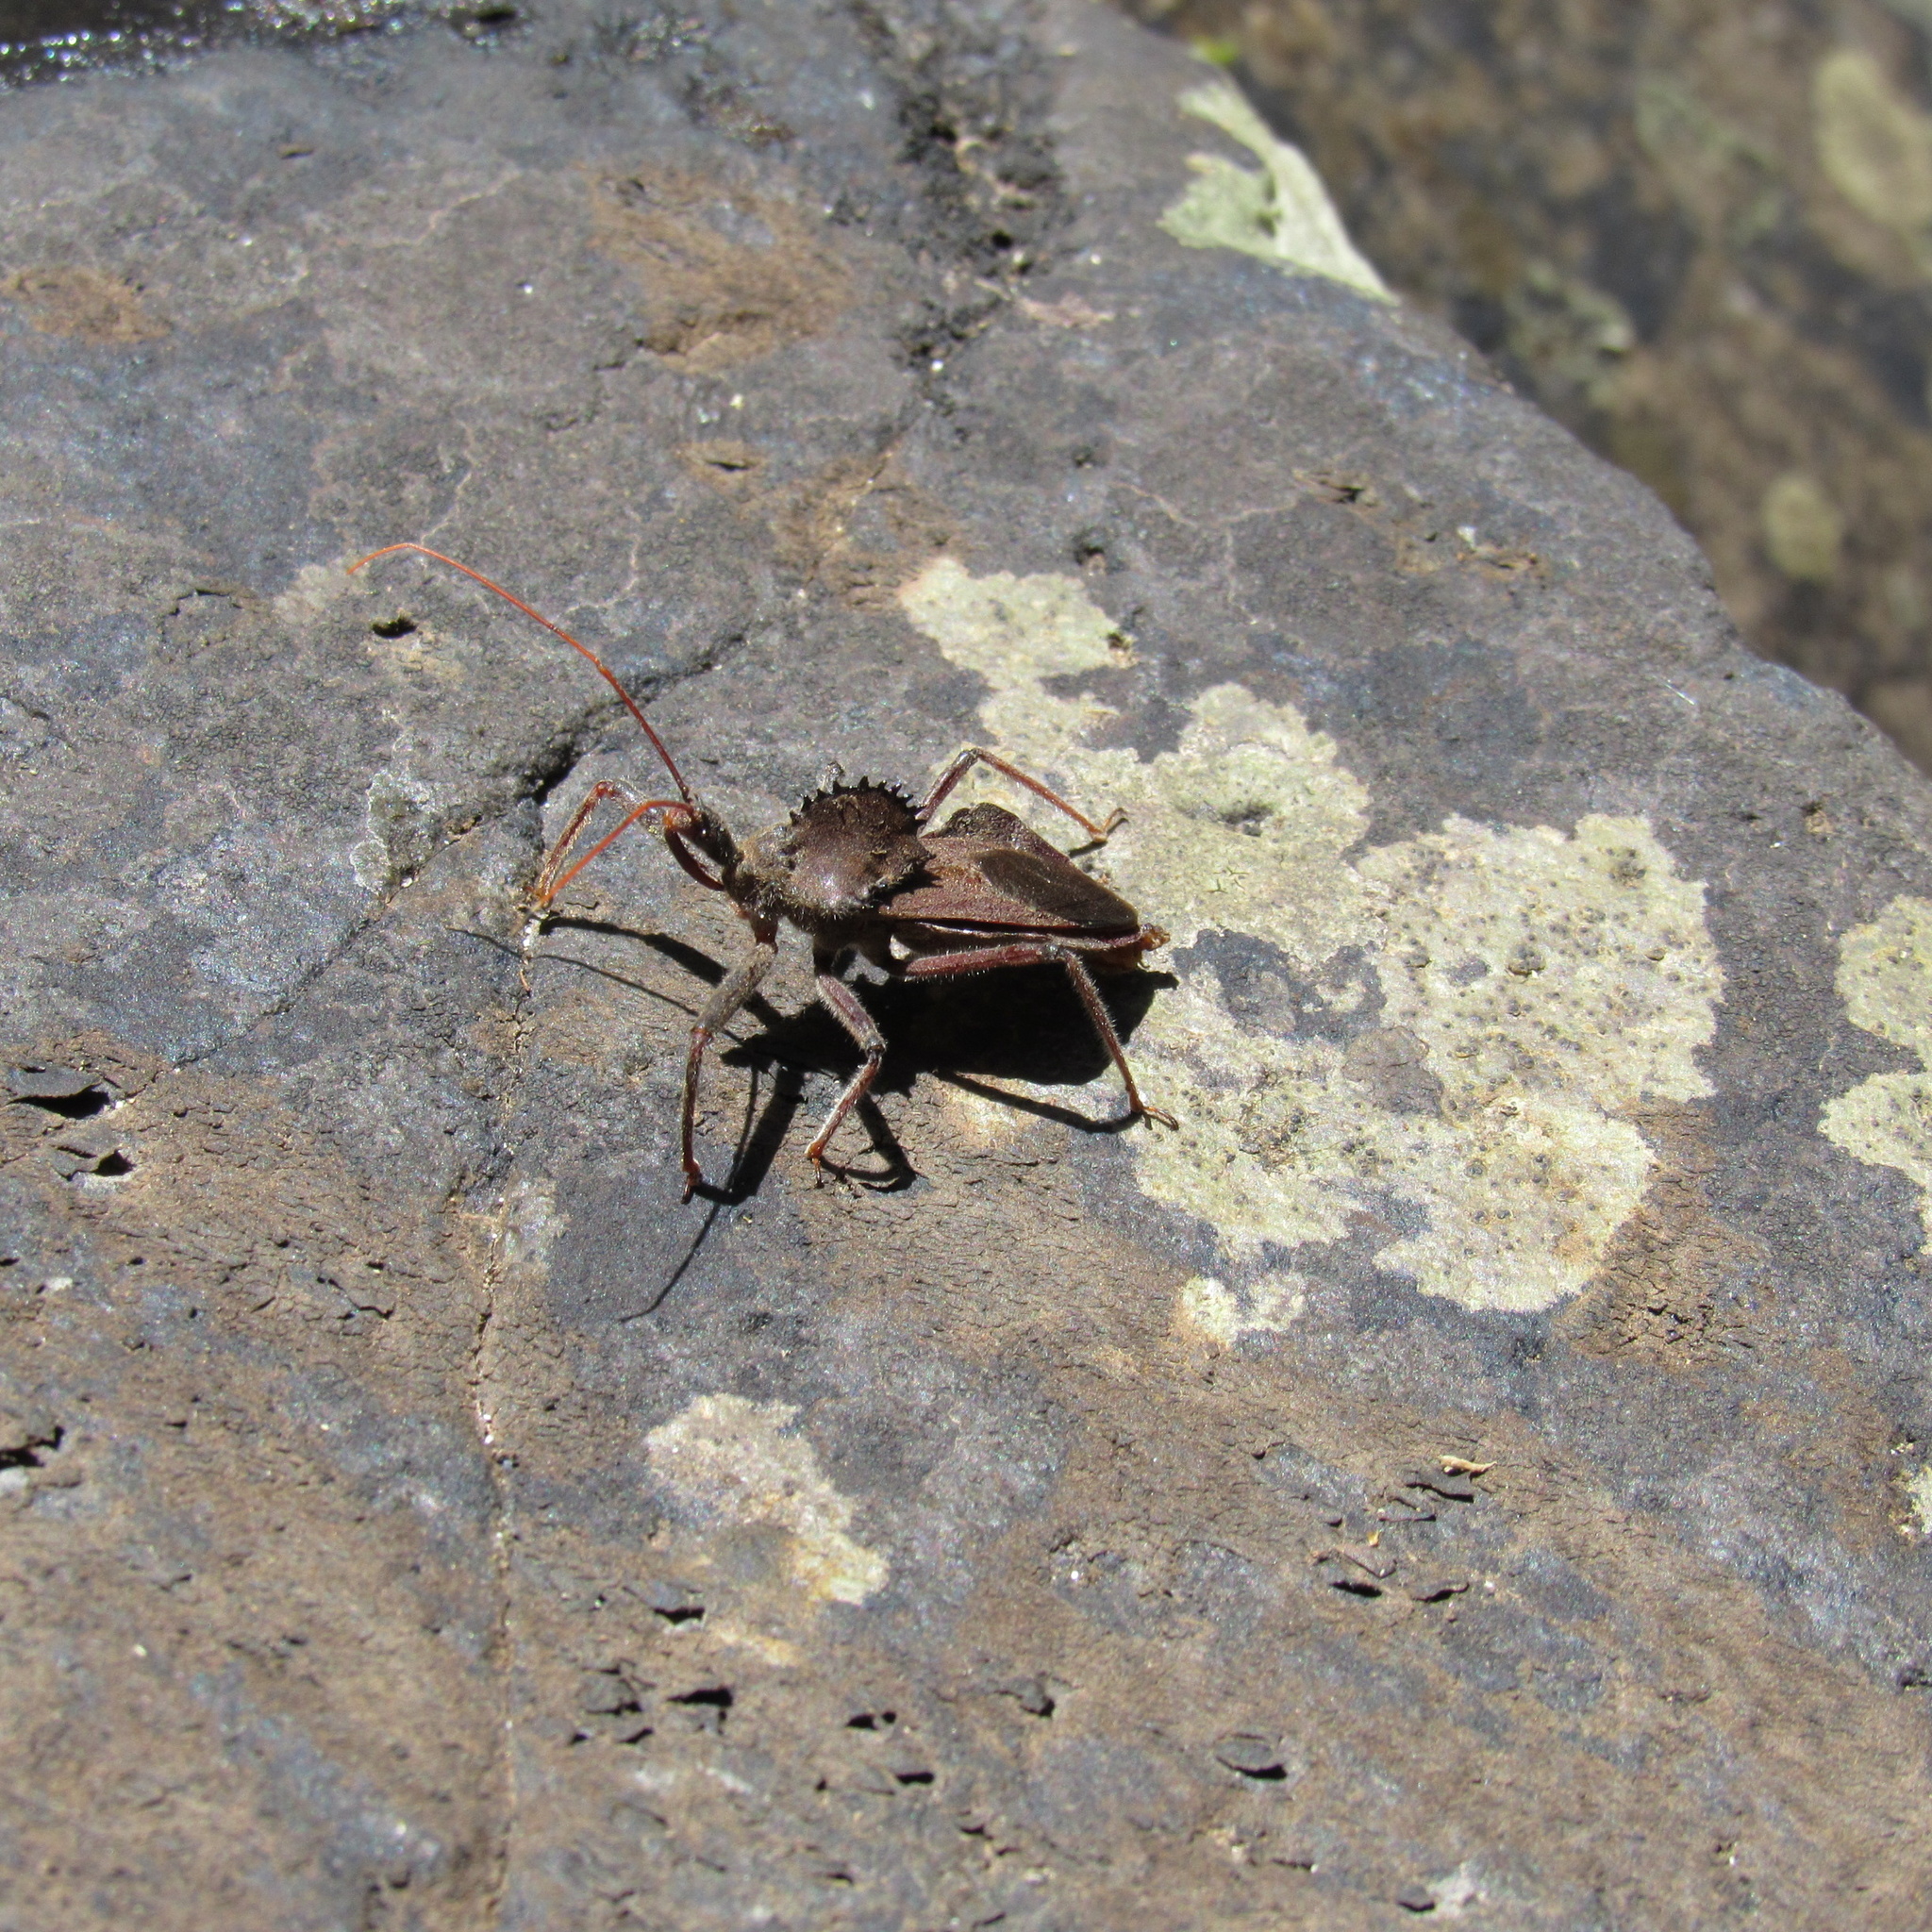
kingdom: Animalia
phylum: Arthropoda
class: Insecta
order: Hemiptera
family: Reduviidae
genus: Arilus
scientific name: Arilus carinatus
